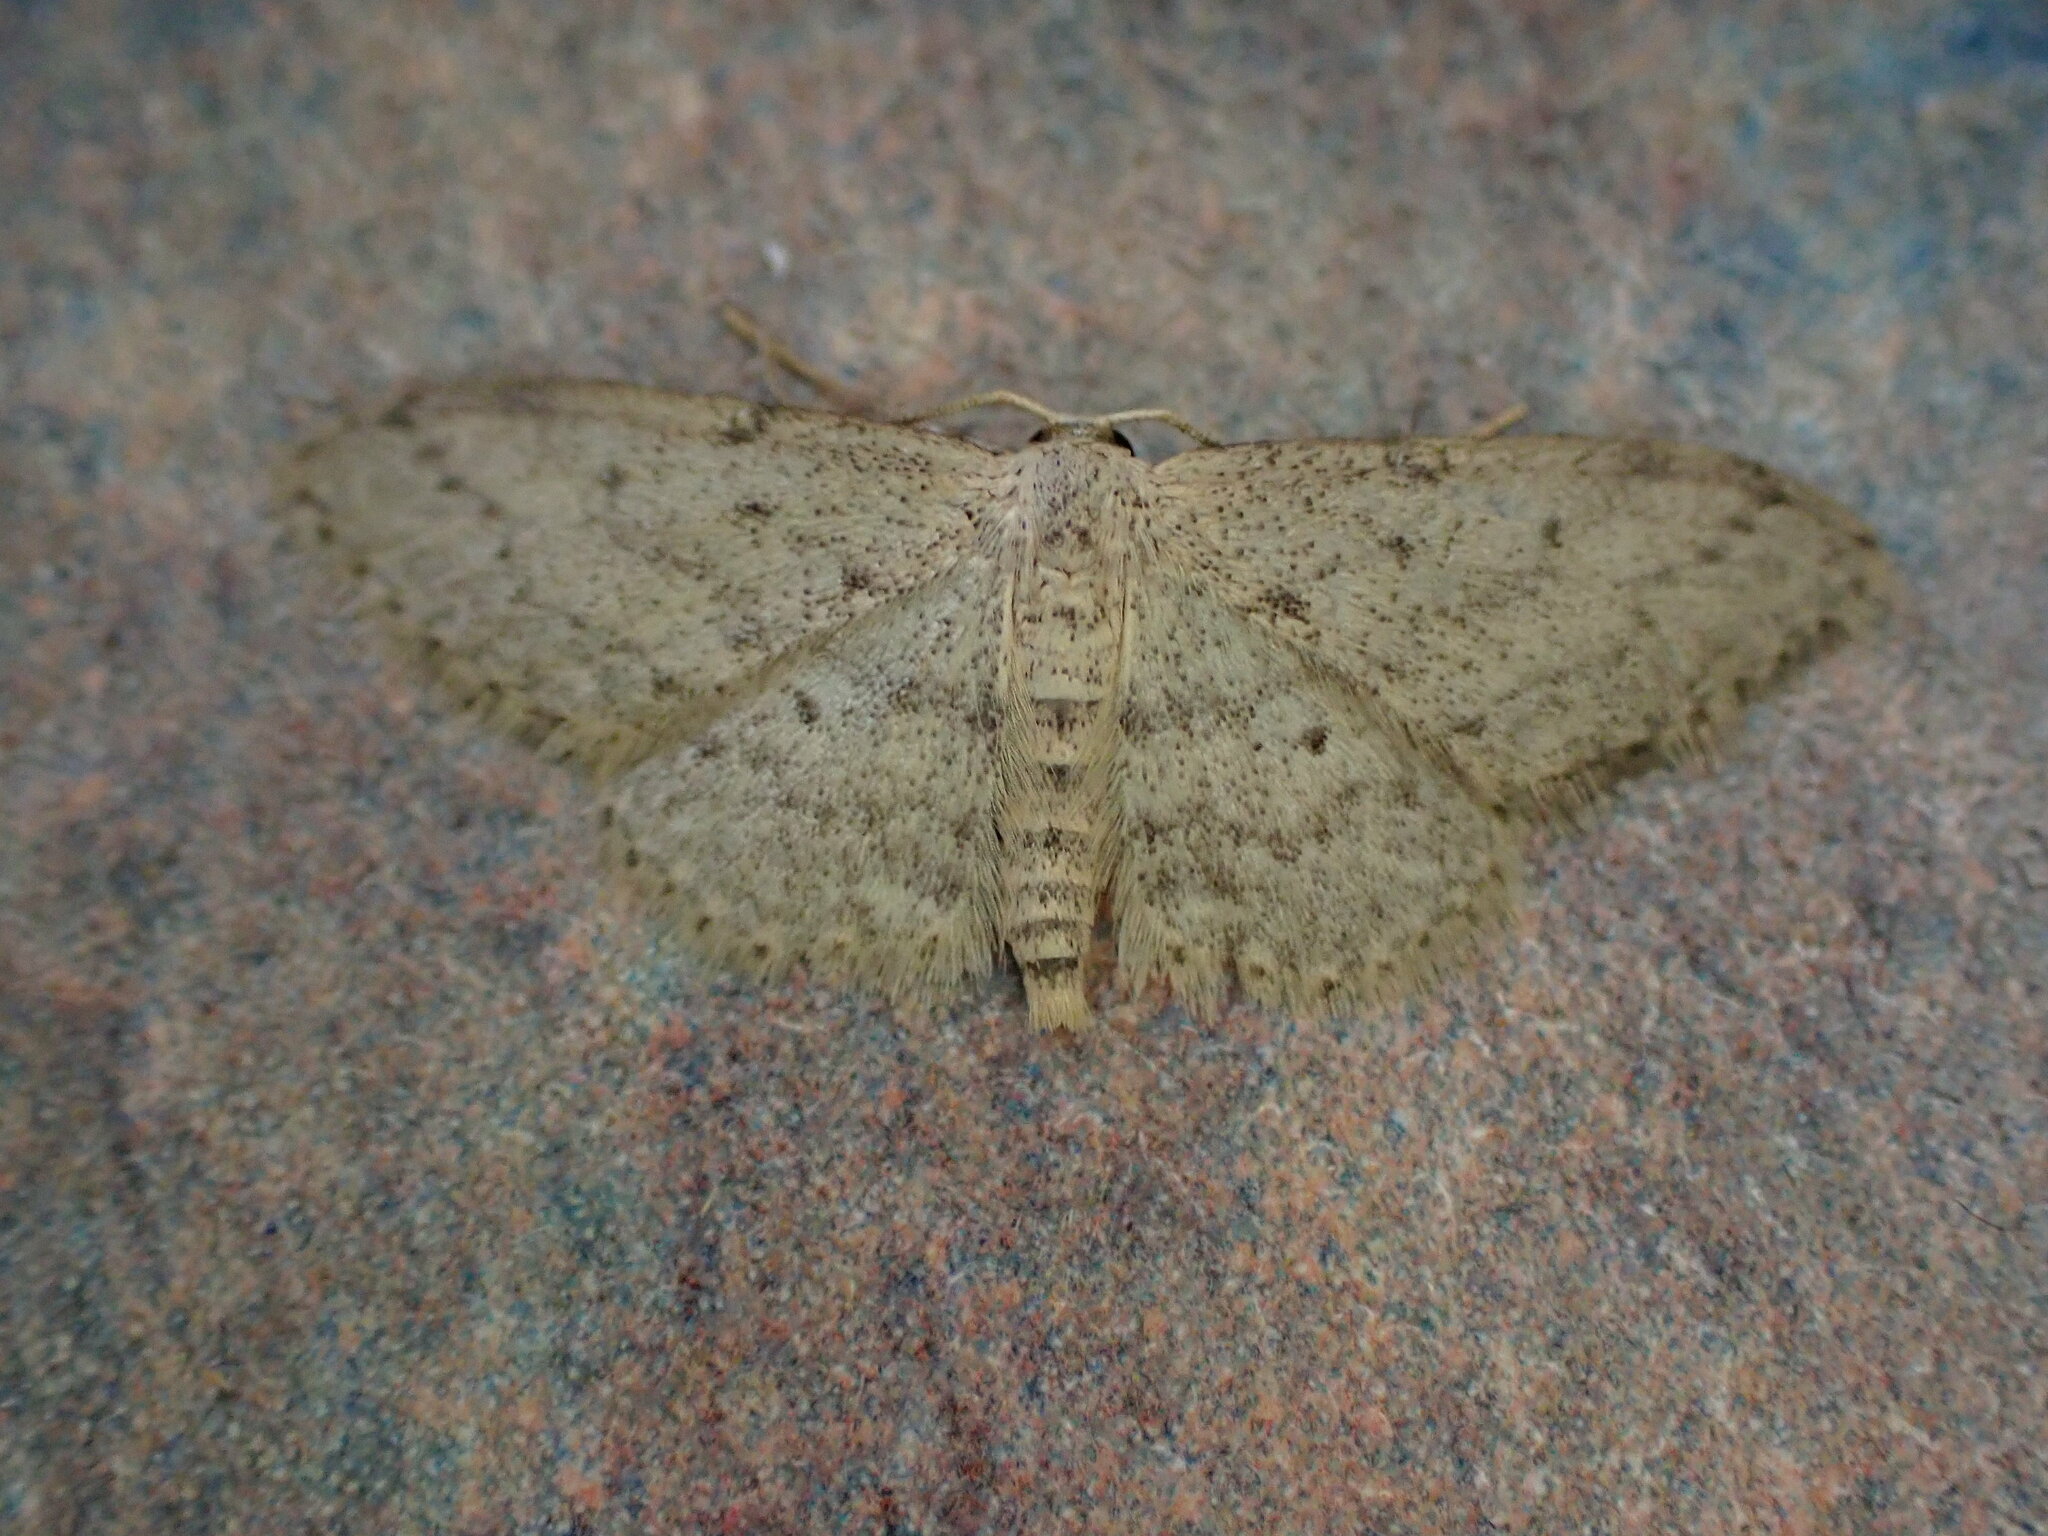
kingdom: Animalia
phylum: Arthropoda
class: Insecta
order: Lepidoptera
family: Geometridae
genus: Idaea
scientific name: Idaea seriata
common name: Small dusty wave
